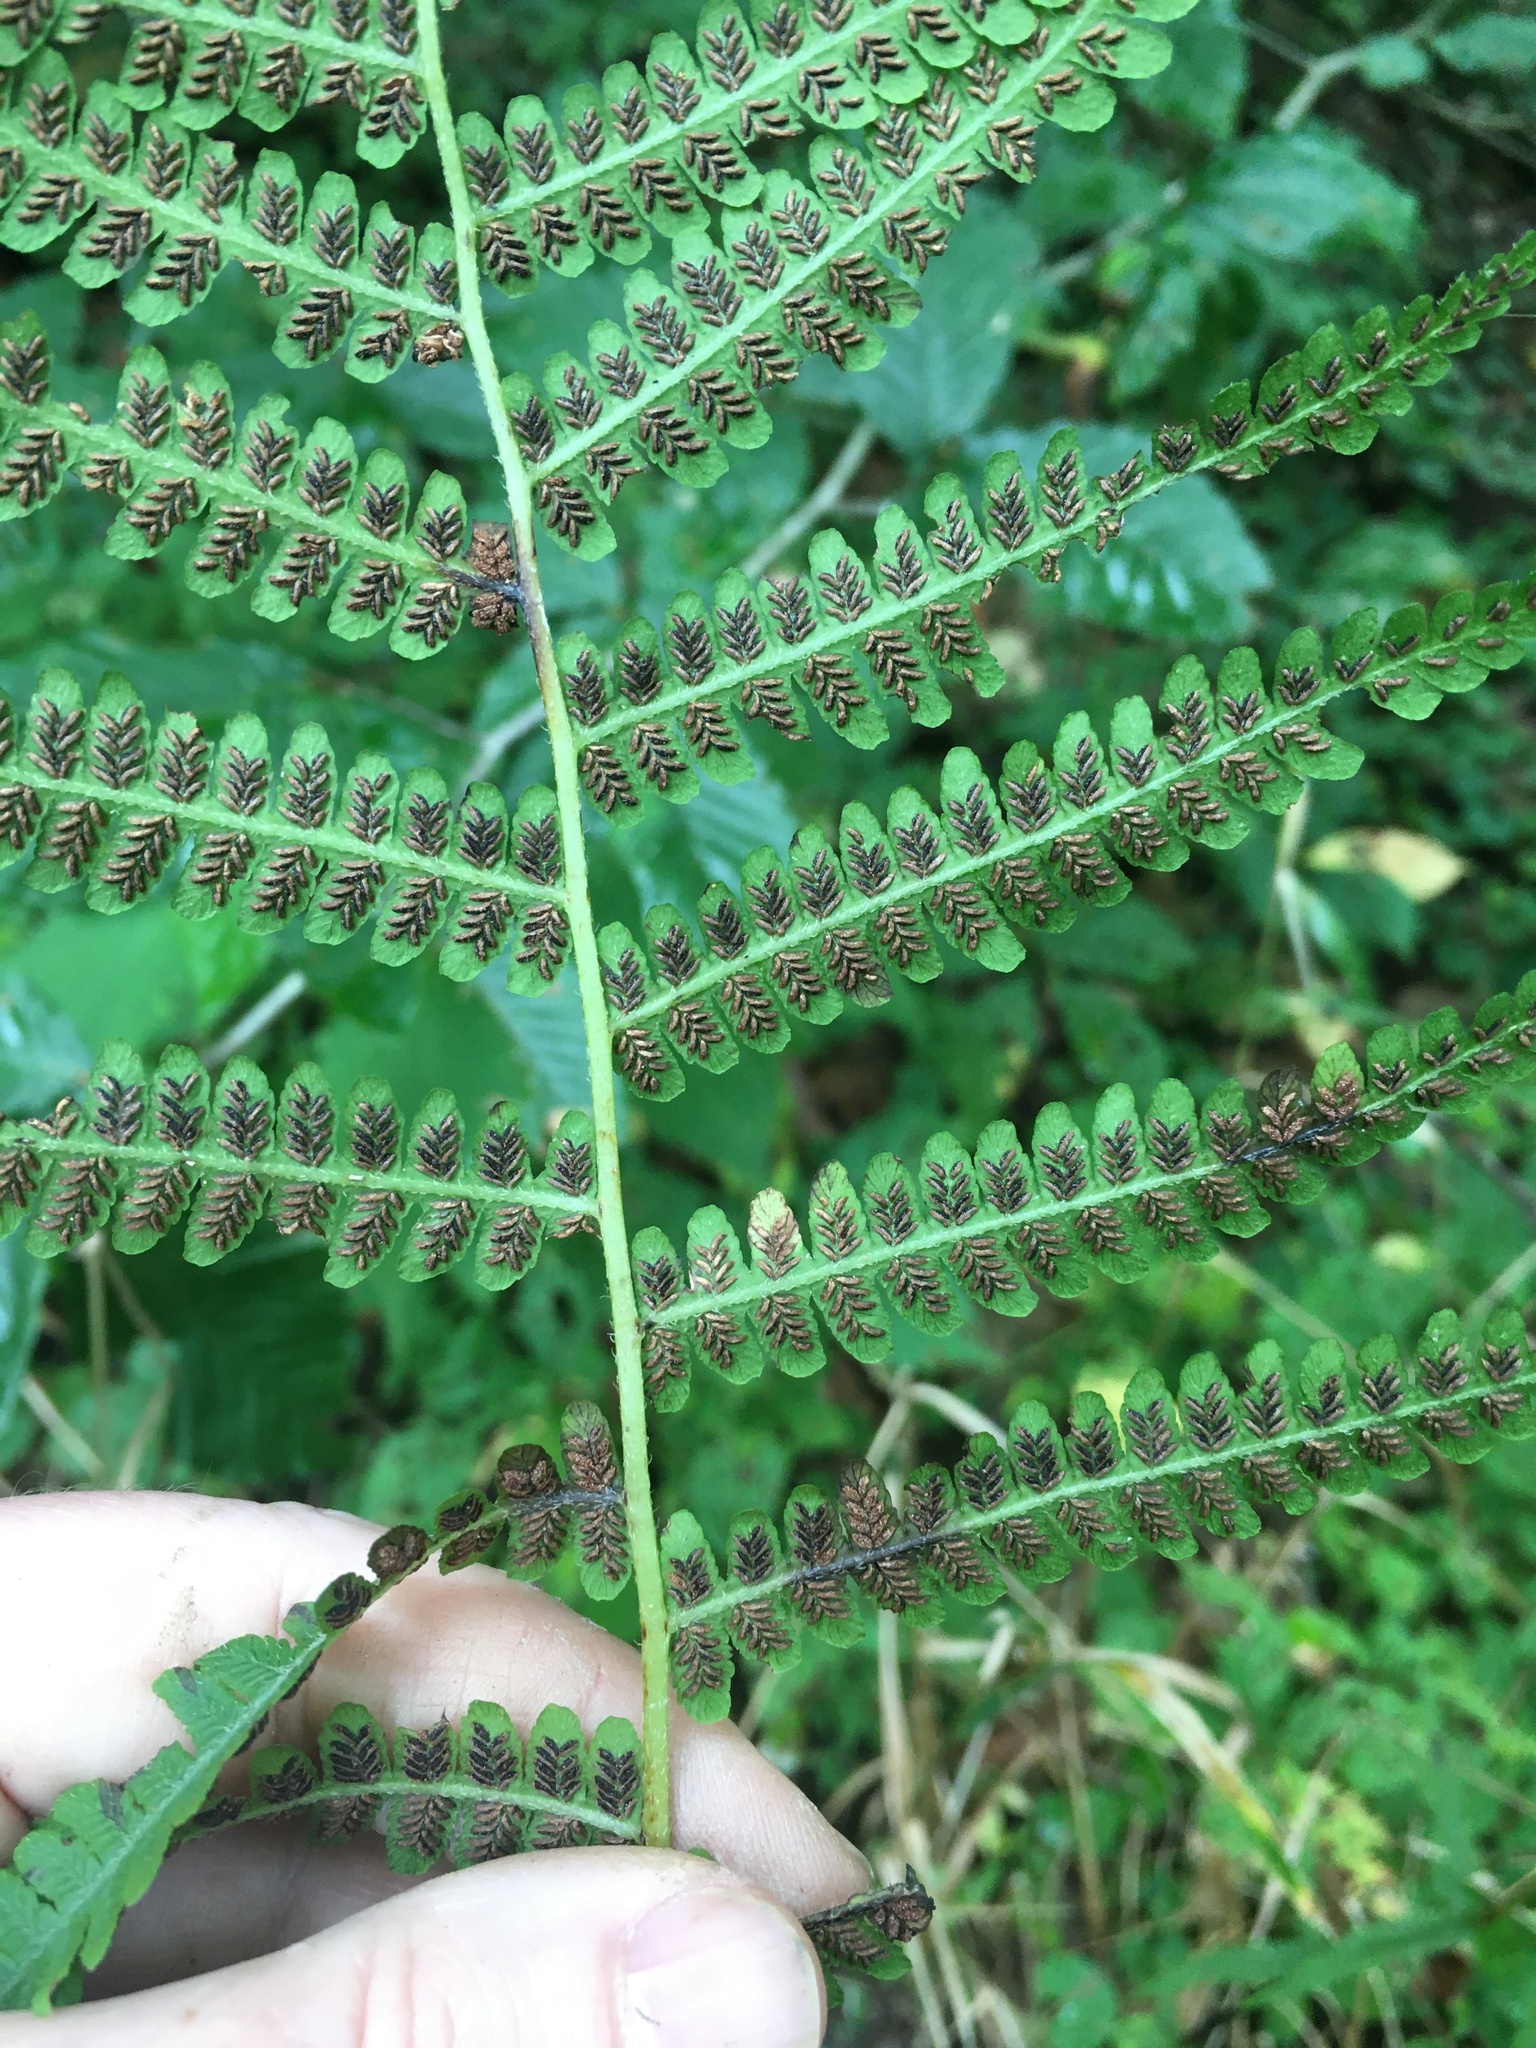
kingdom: Plantae
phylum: Tracheophyta
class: Polypodiopsida
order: Polypodiales
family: Athyriaceae
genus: Deparia
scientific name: Deparia acrostichoides
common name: Silver false spleenwort
